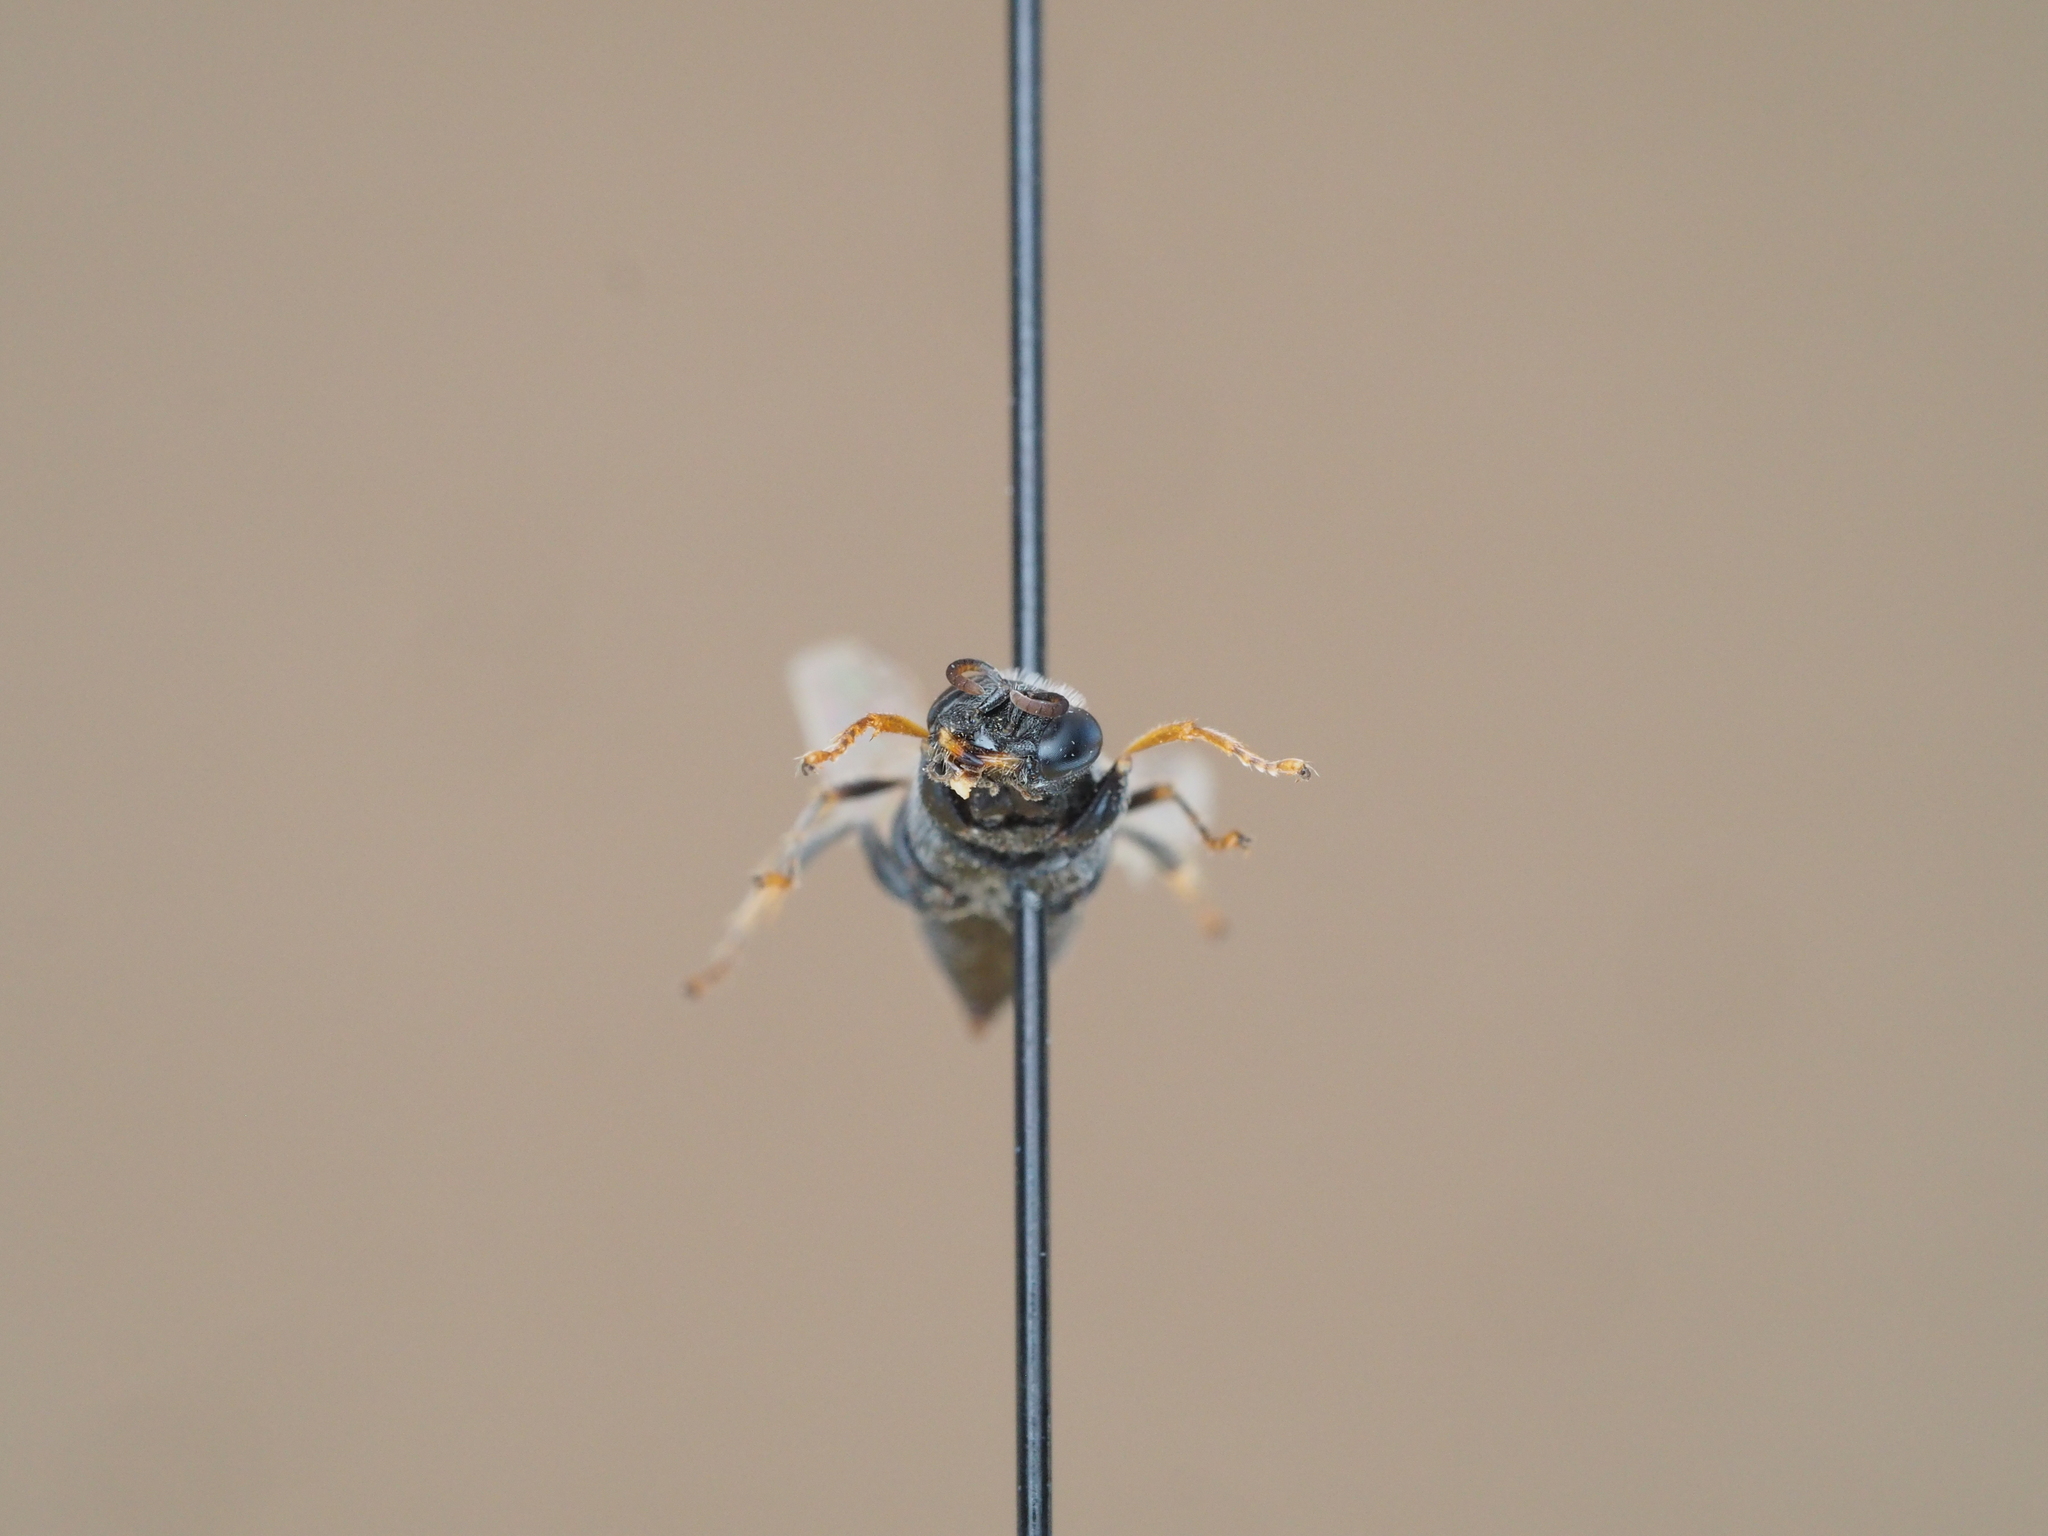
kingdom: Animalia
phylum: Arthropoda
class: Insecta
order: Hymenoptera
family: Crabronidae
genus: Oxybelus
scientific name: Oxybelus bipunctatus
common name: Square-headed wasp
